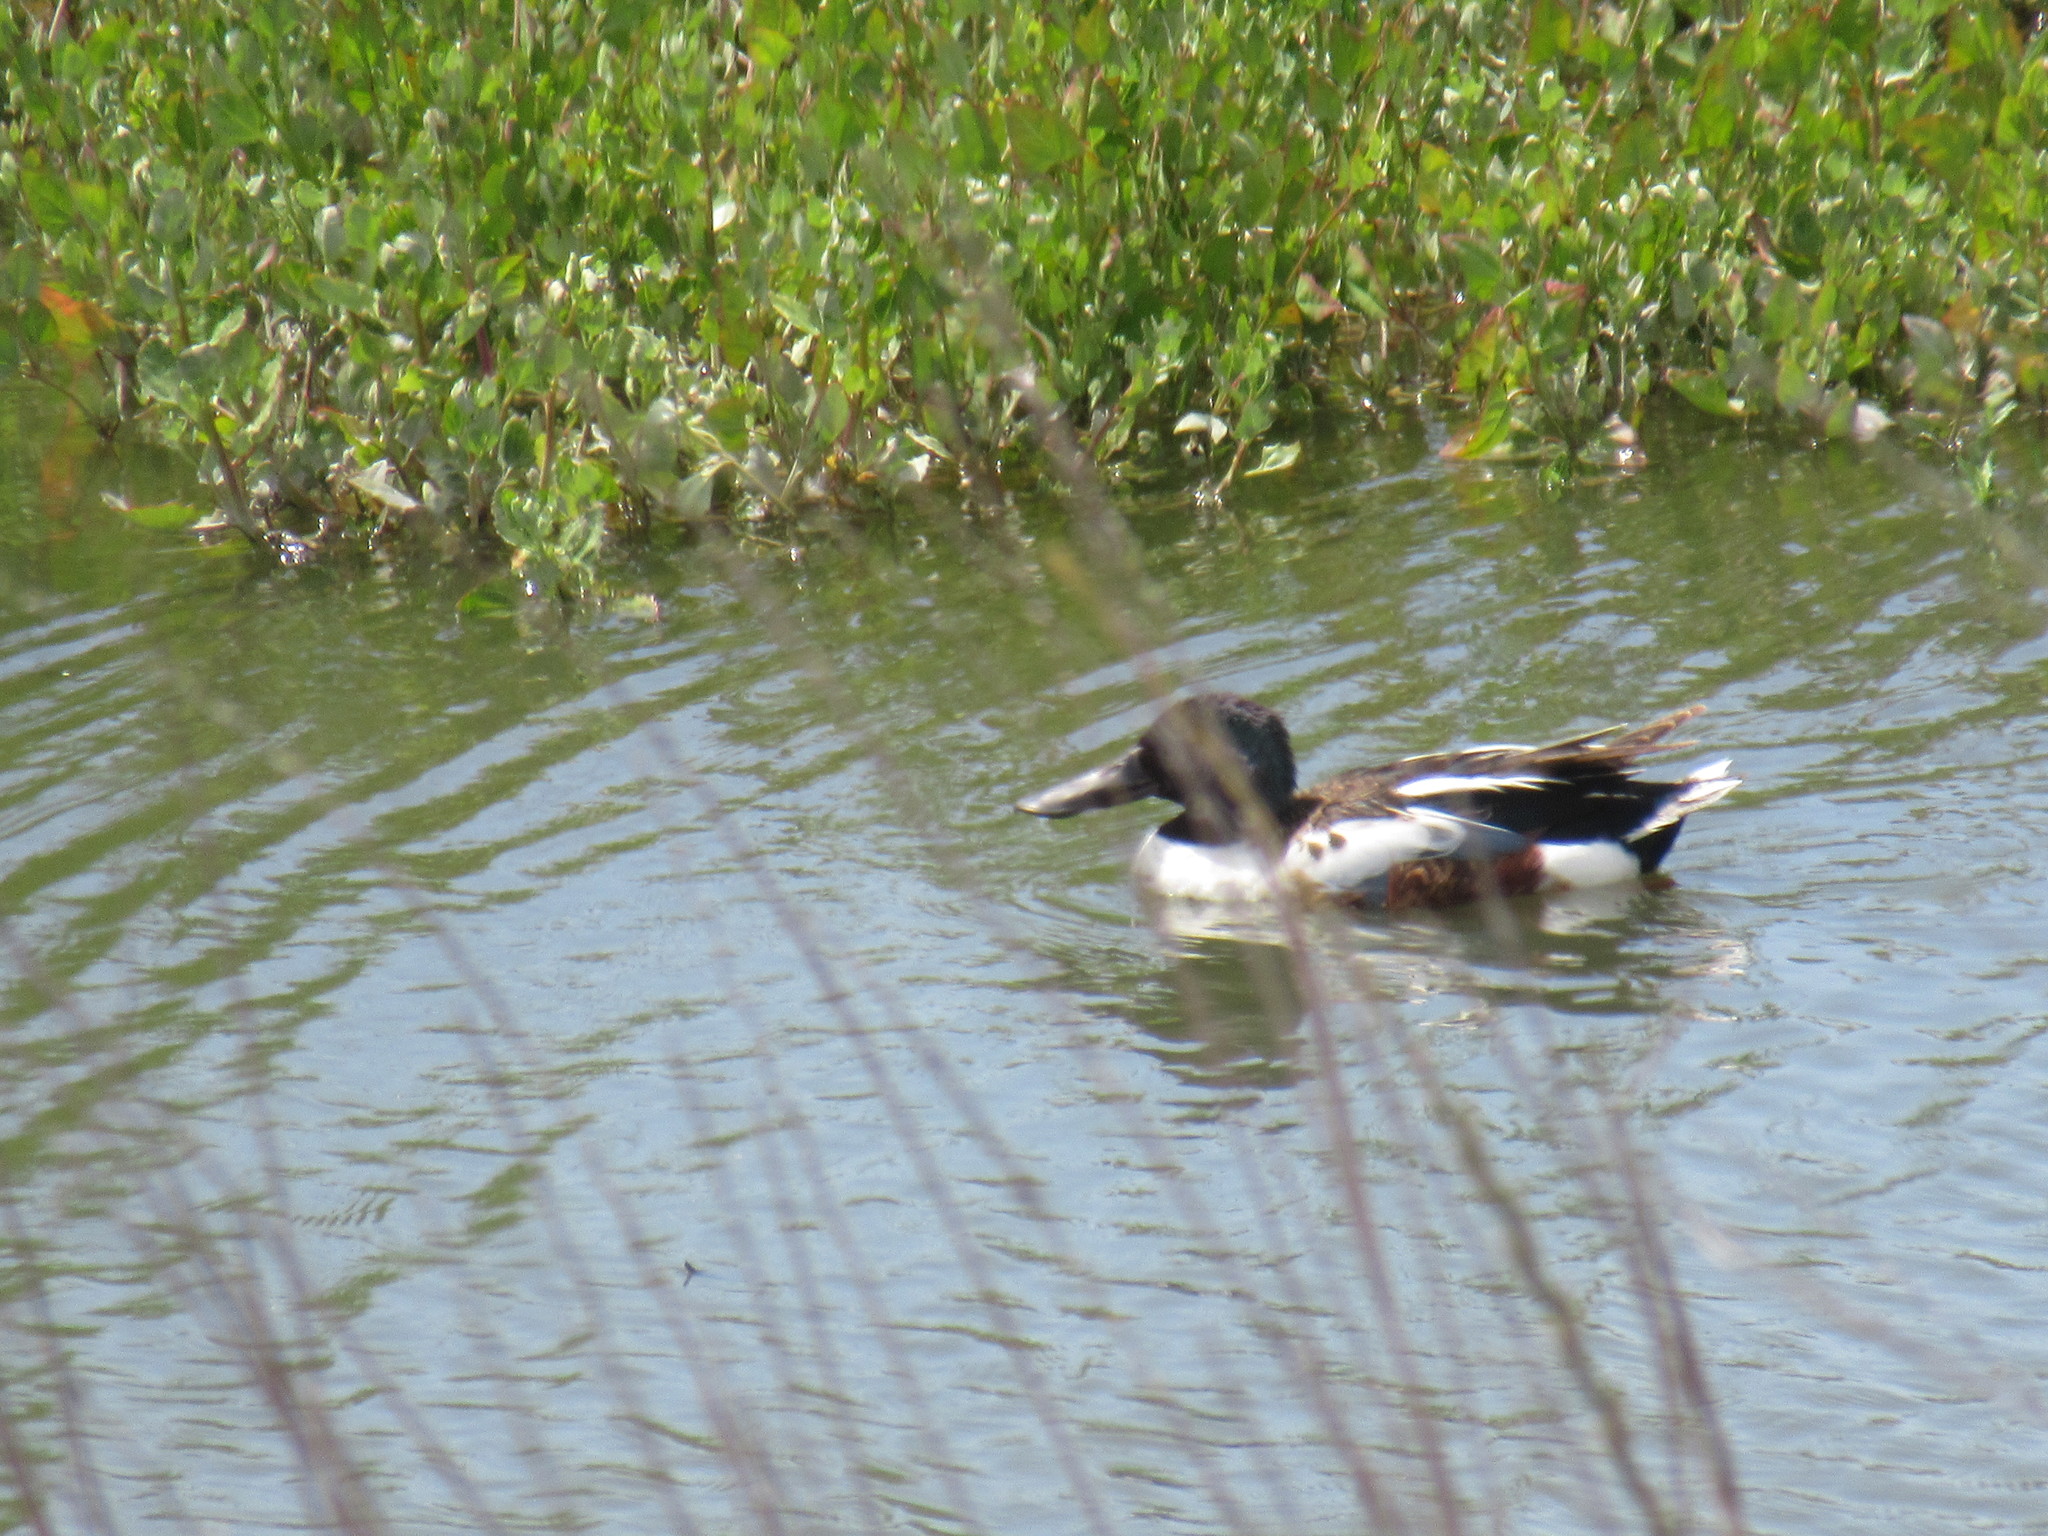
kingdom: Animalia
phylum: Chordata
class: Aves
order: Anseriformes
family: Anatidae
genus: Spatula
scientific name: Spatula clypeata
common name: Northern shoveler
